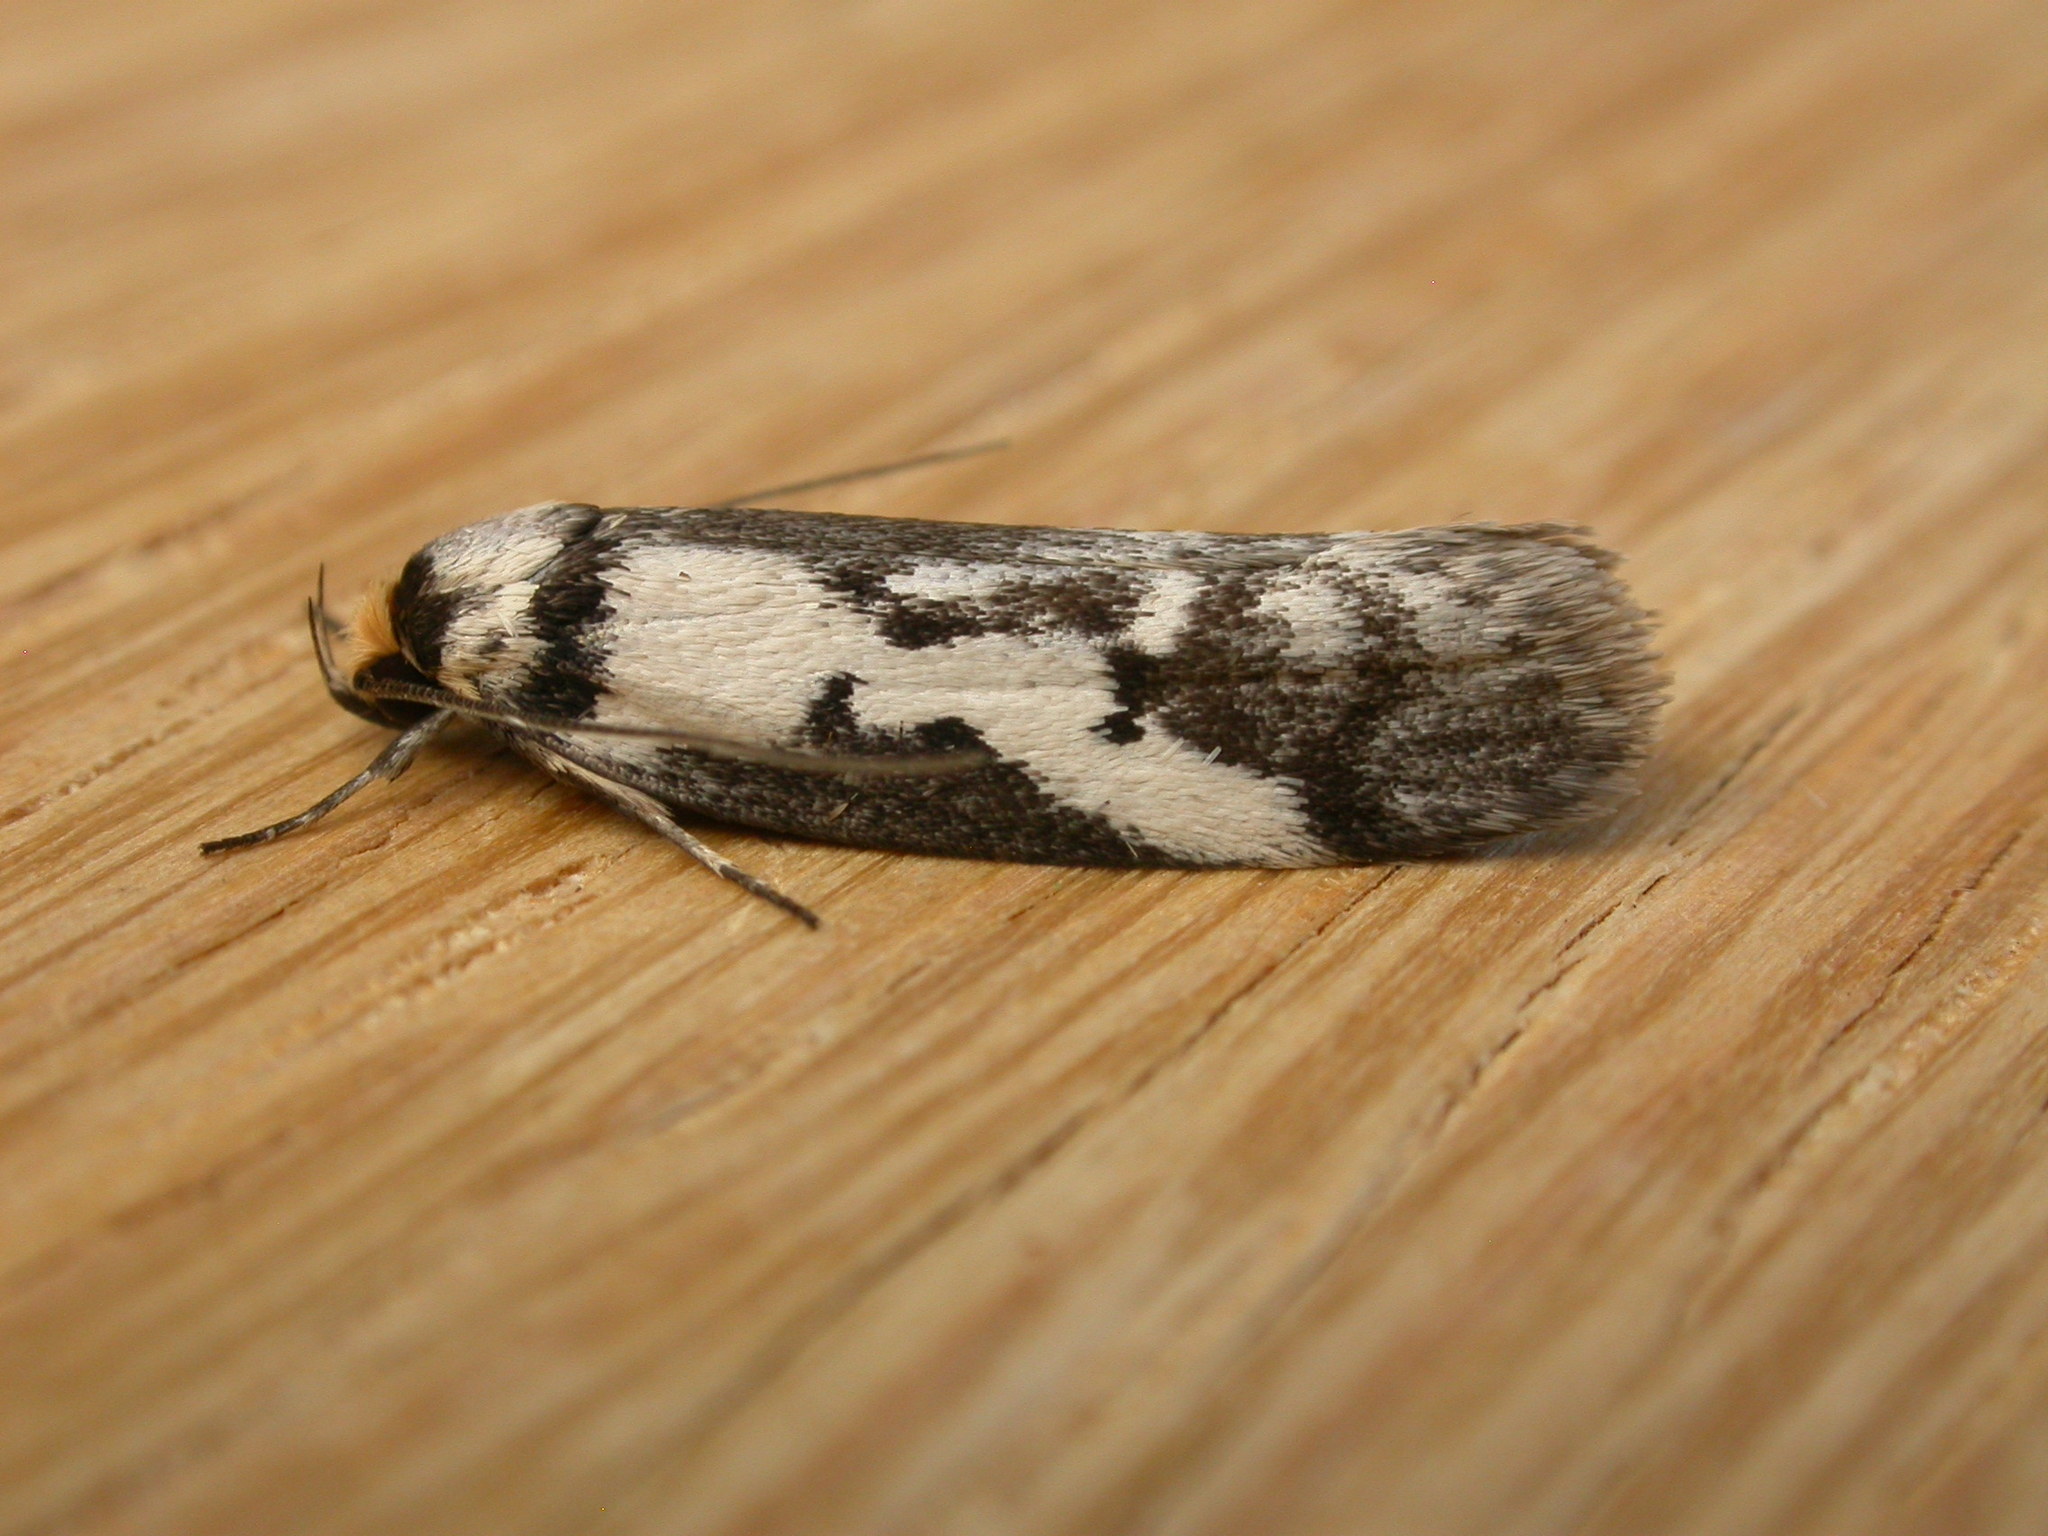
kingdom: Animalia
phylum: Arthropoda
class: Insecta
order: Lepidoptera
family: Oecophoridae
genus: Philobota
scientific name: Philobota partitella
